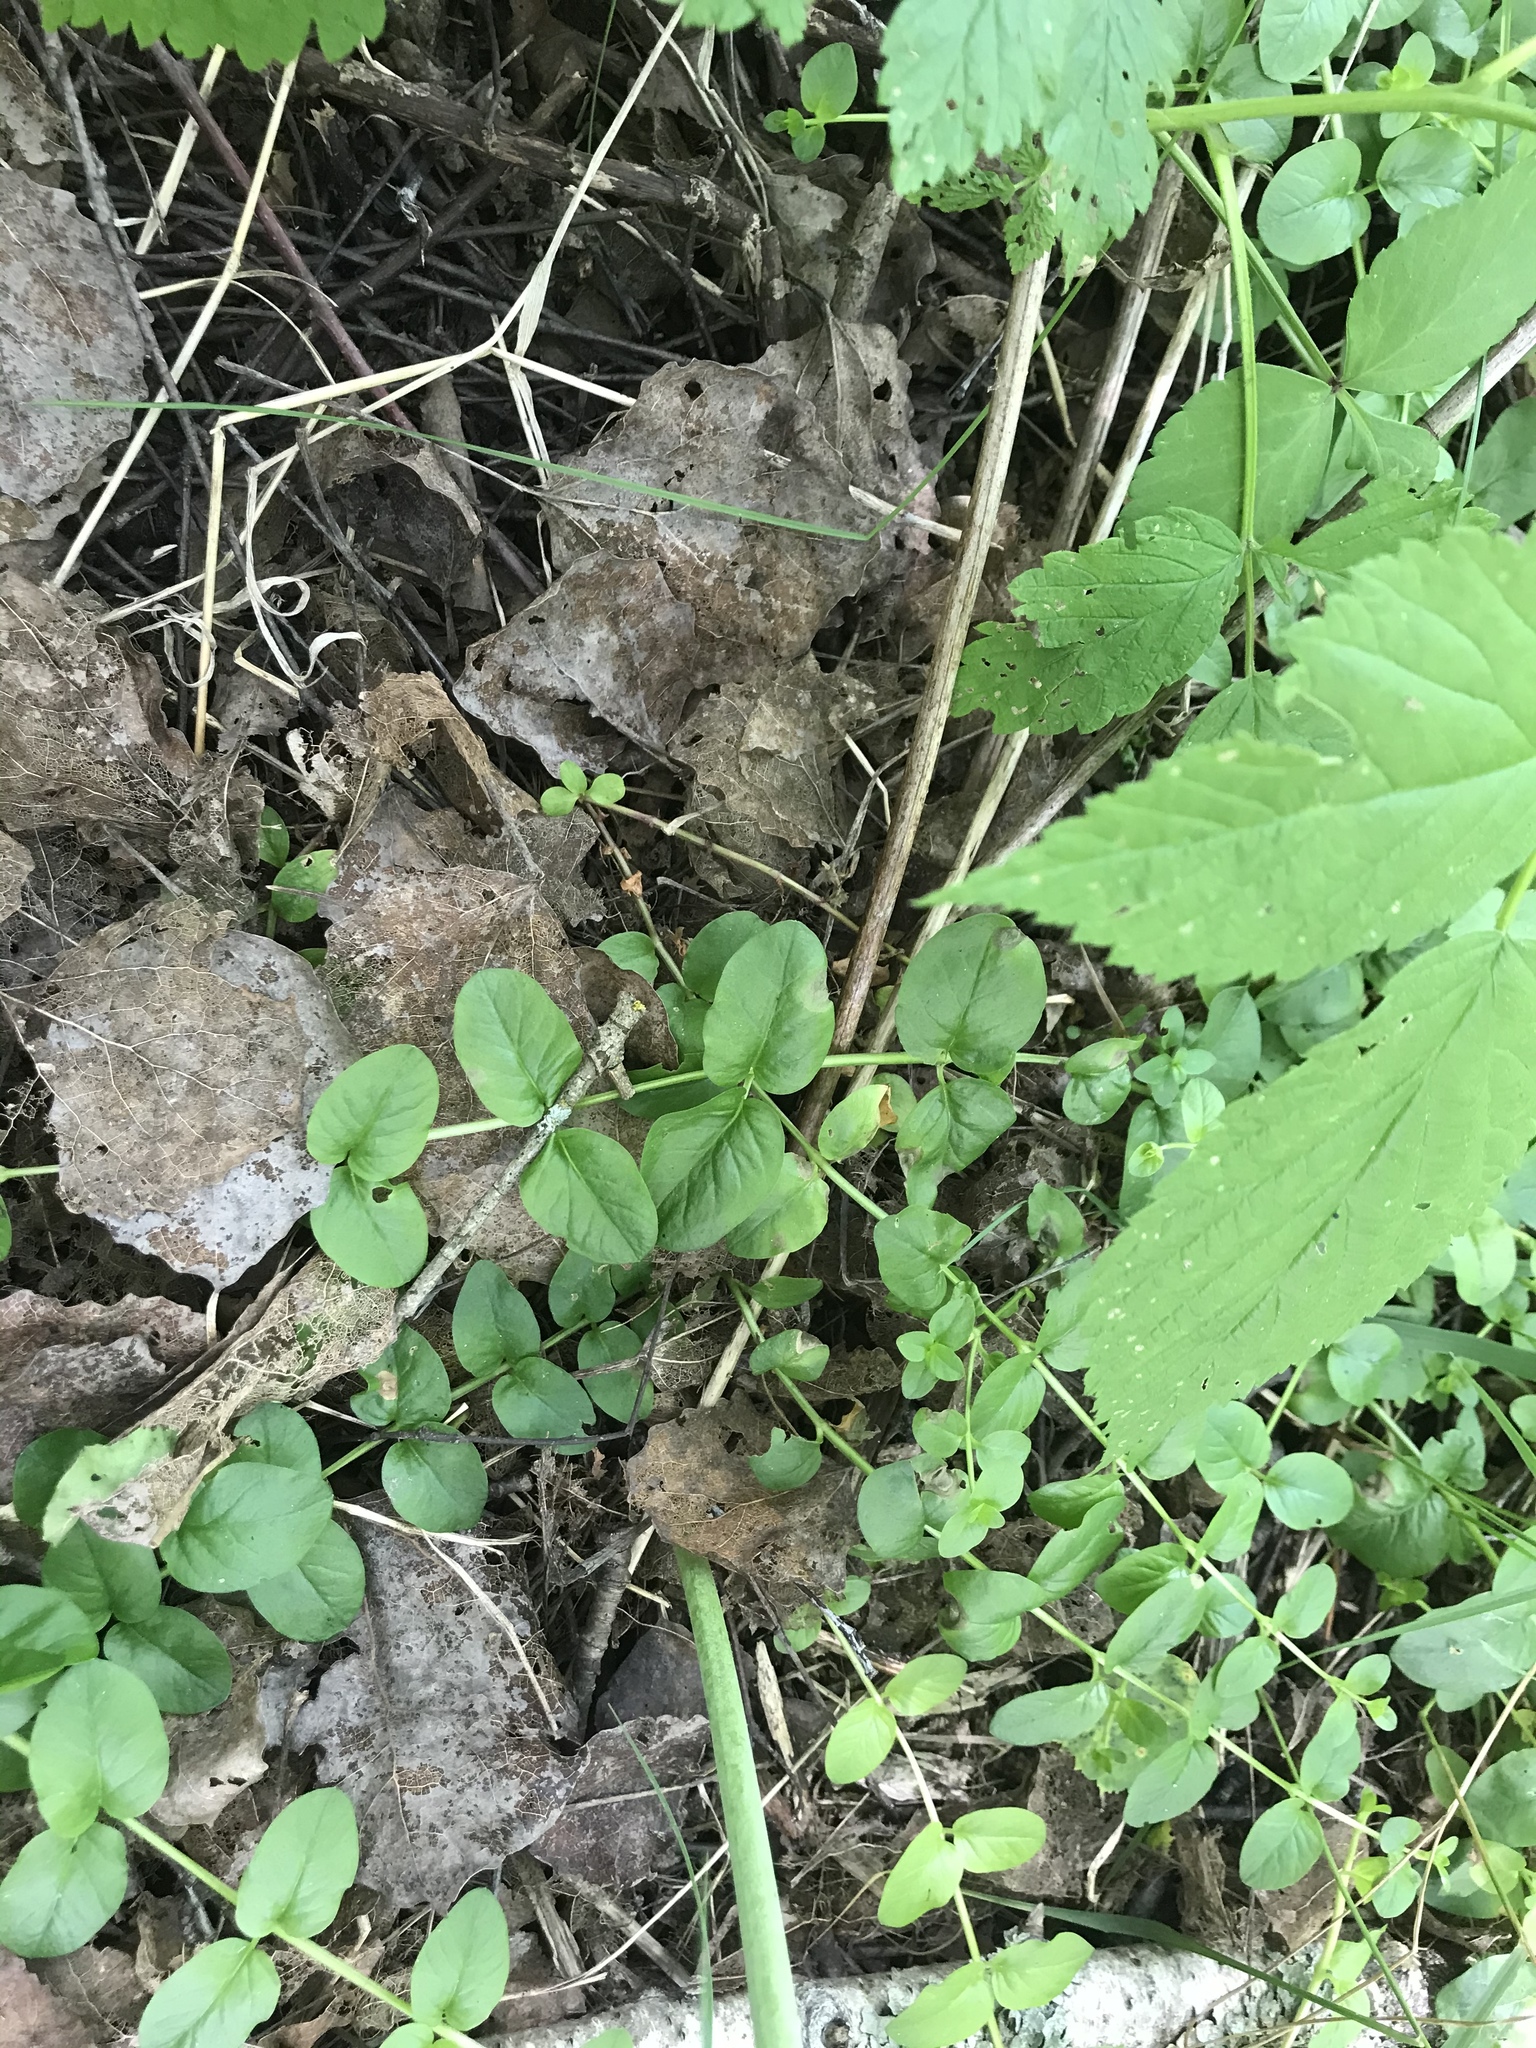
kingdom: Plantae
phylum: Tracheophyta
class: Magnoliopsida
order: Rosales
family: Rosaceae
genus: Rubus
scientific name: Rubus idaeus
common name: Raspberry
